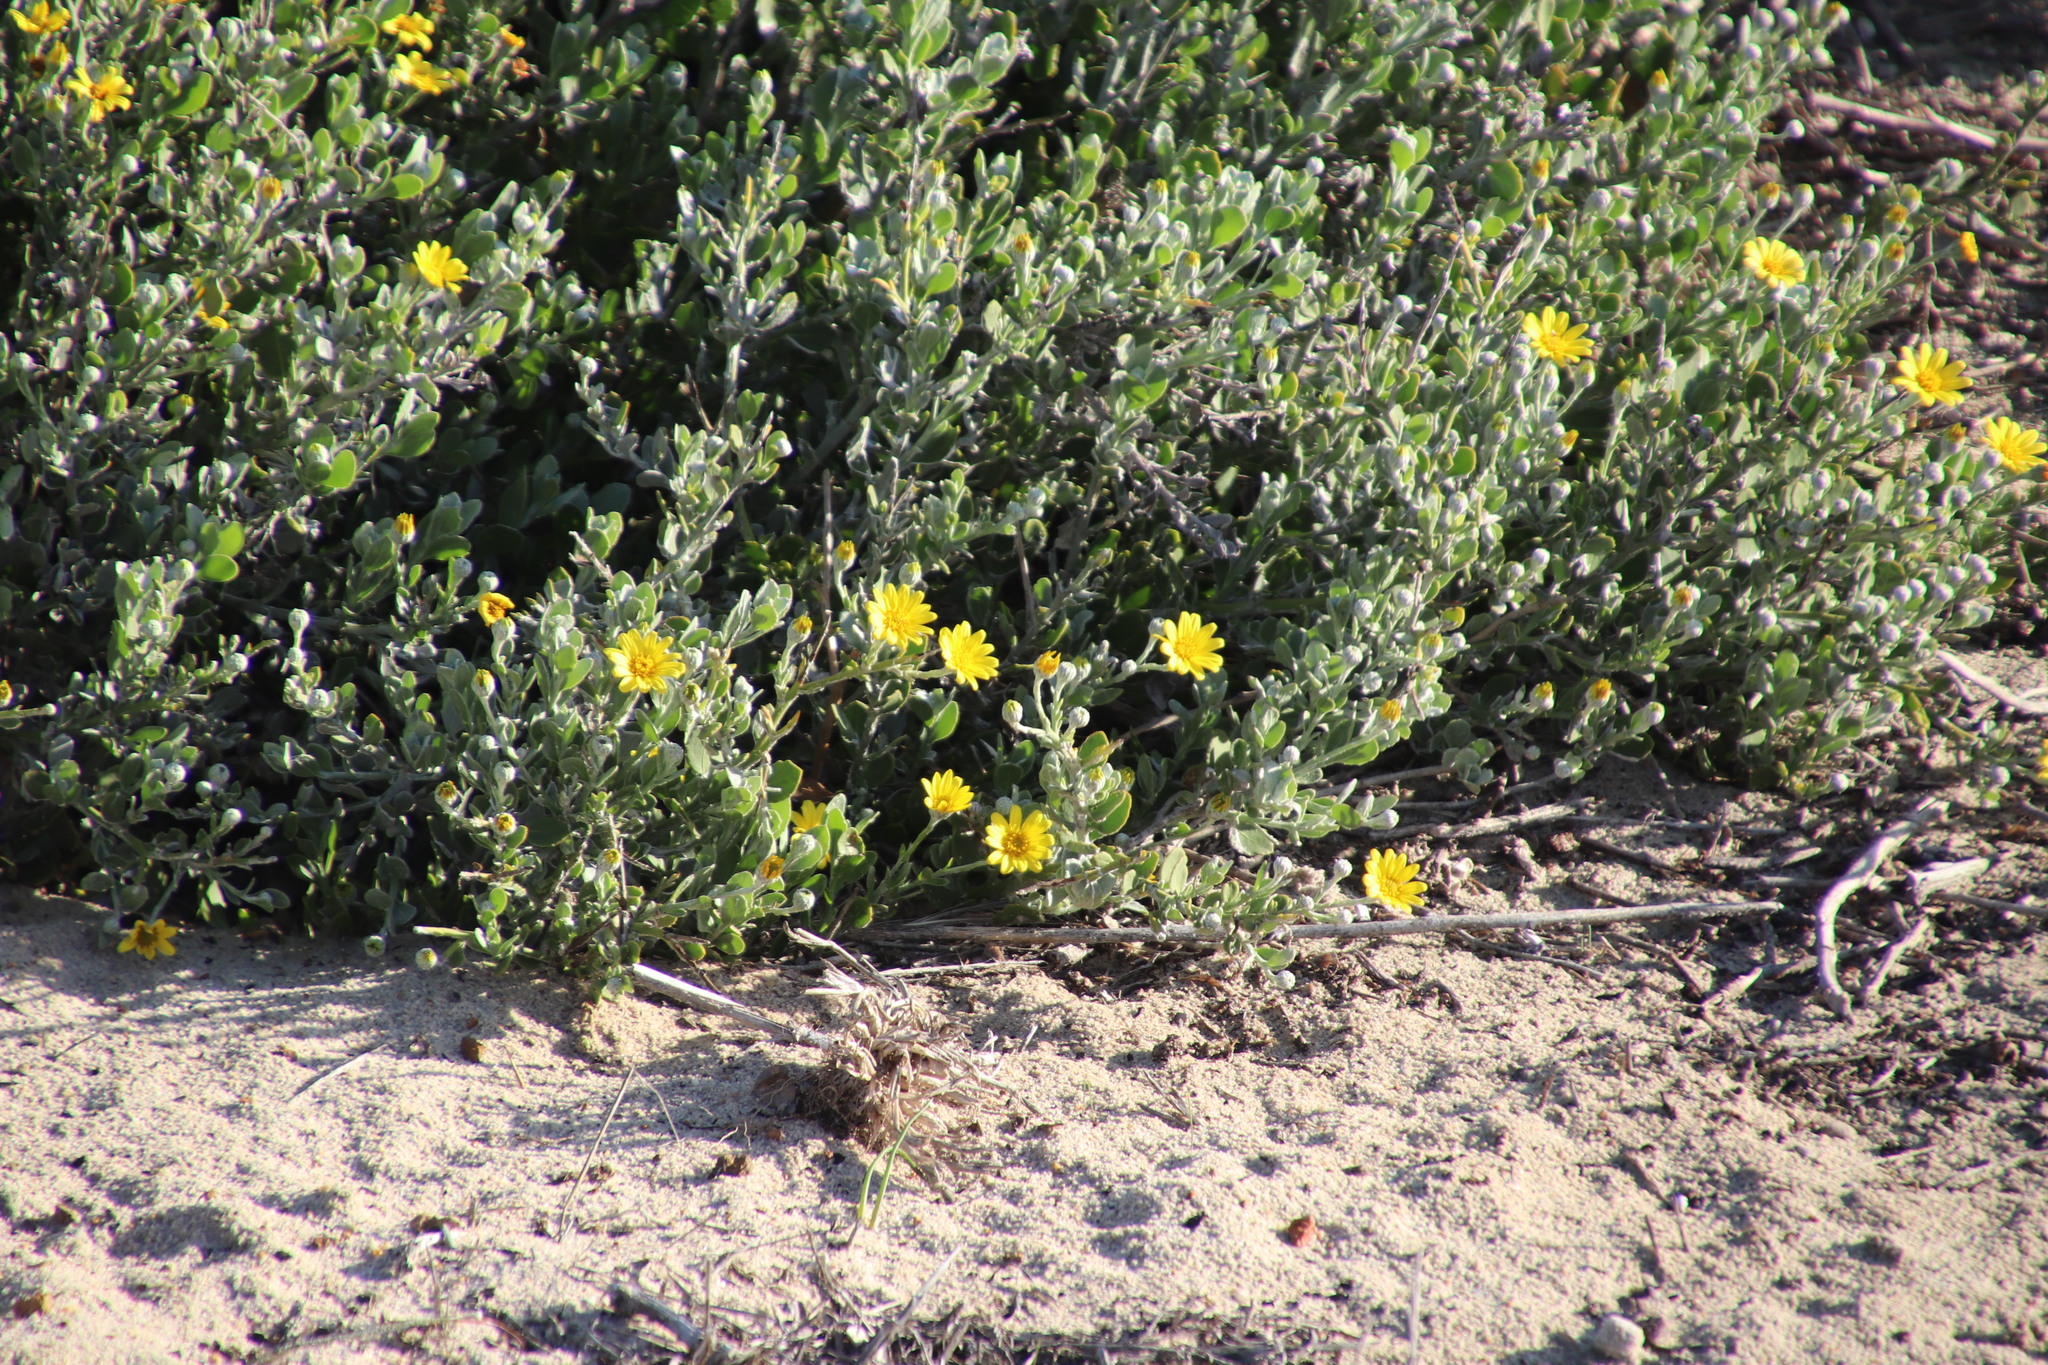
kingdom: Plantae
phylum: Tracheophyta
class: Magnoliopsida
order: Asterales
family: Asteraceae
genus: Osteospermum
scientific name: Osteospermum moniliferum
